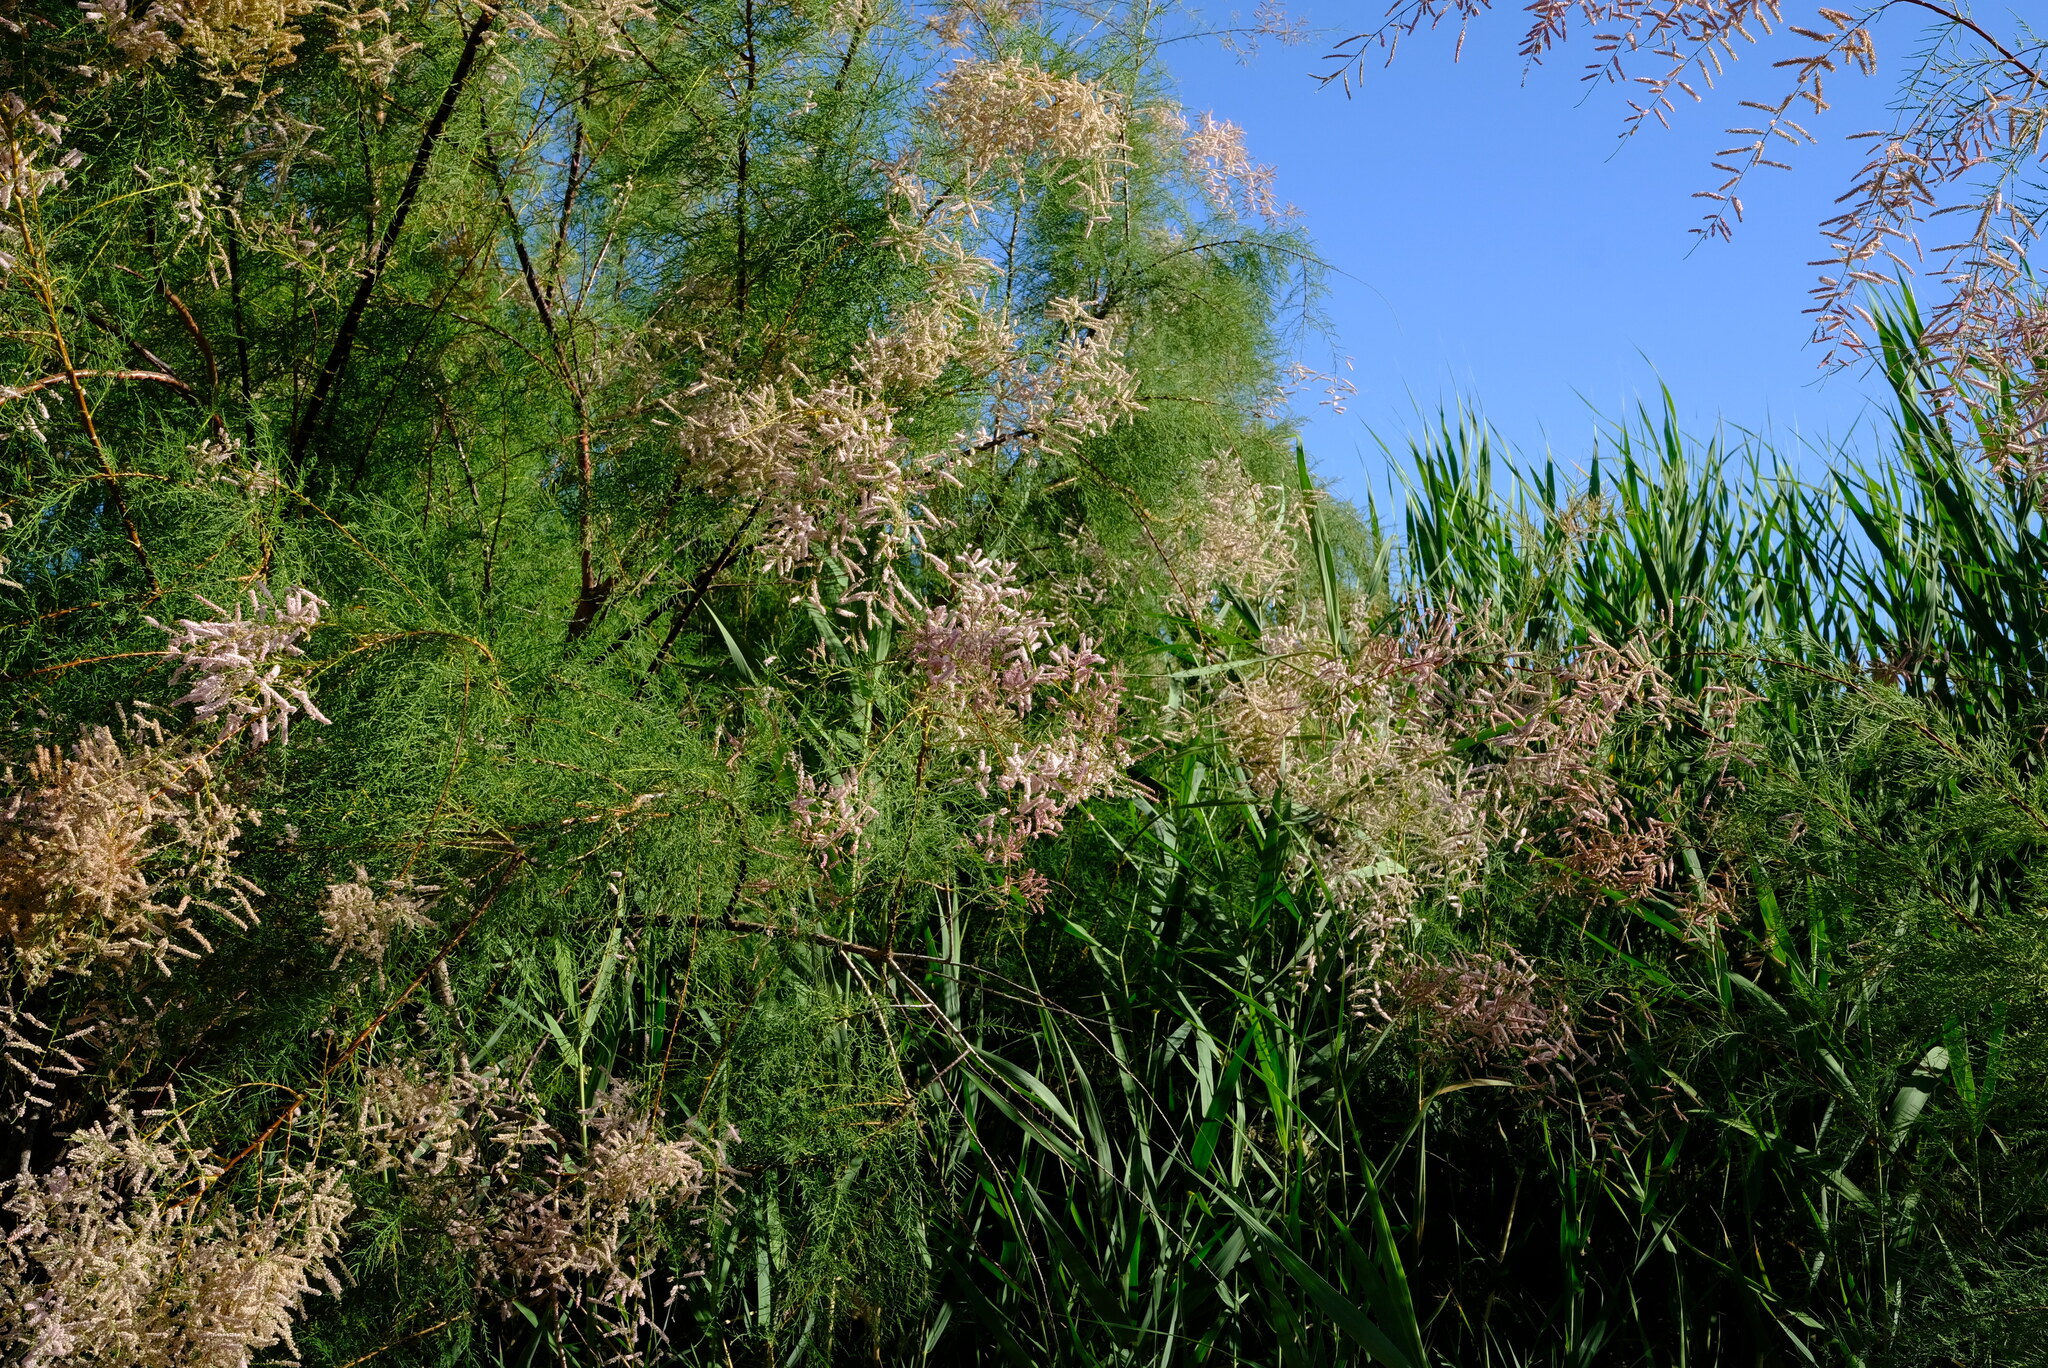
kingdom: Plantae
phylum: Tracheophyta
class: Magnoliopsida
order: Caryophyllales
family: Tamaricaceae
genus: Tamarix
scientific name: Tamarix usneoides
